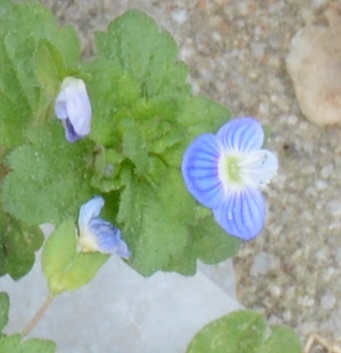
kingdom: Plantae
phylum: Tracheophyta
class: Magnoliopsida
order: Lamiales
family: Plantaginaceae
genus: Veronica
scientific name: Veronica persica
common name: Common field-speedwell
